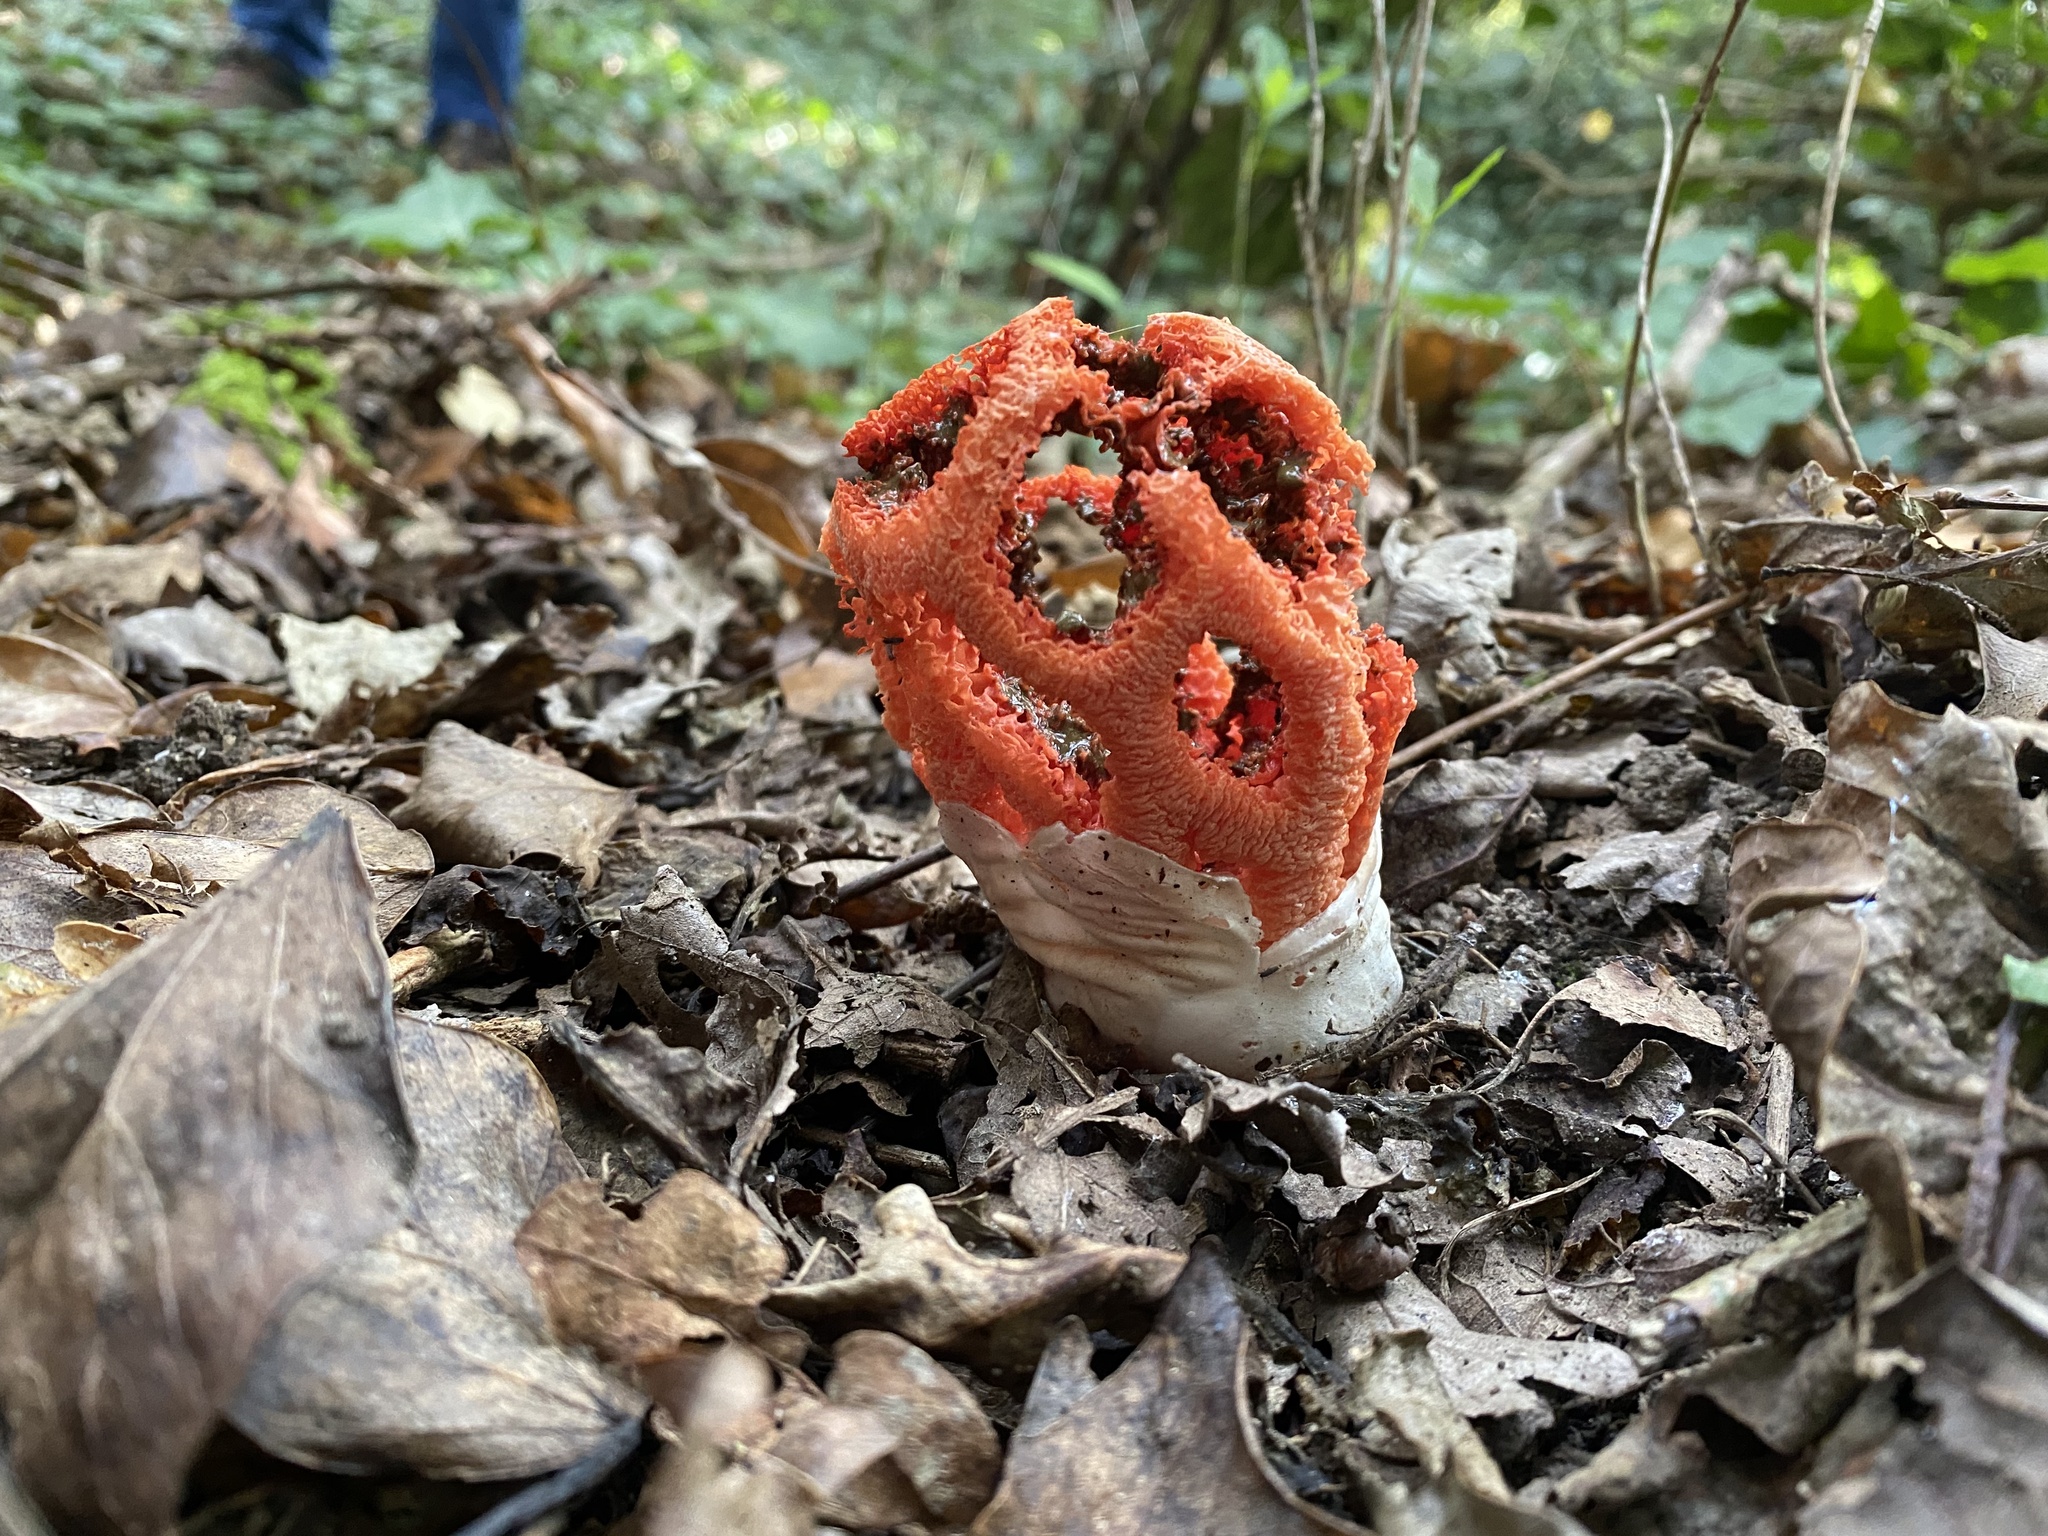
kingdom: Fungi
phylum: Basidiomycota
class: Agaricomycetes
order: Phallales
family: Phallaceae
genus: Clathrus
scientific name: Clathrus ruber
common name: Red cage
